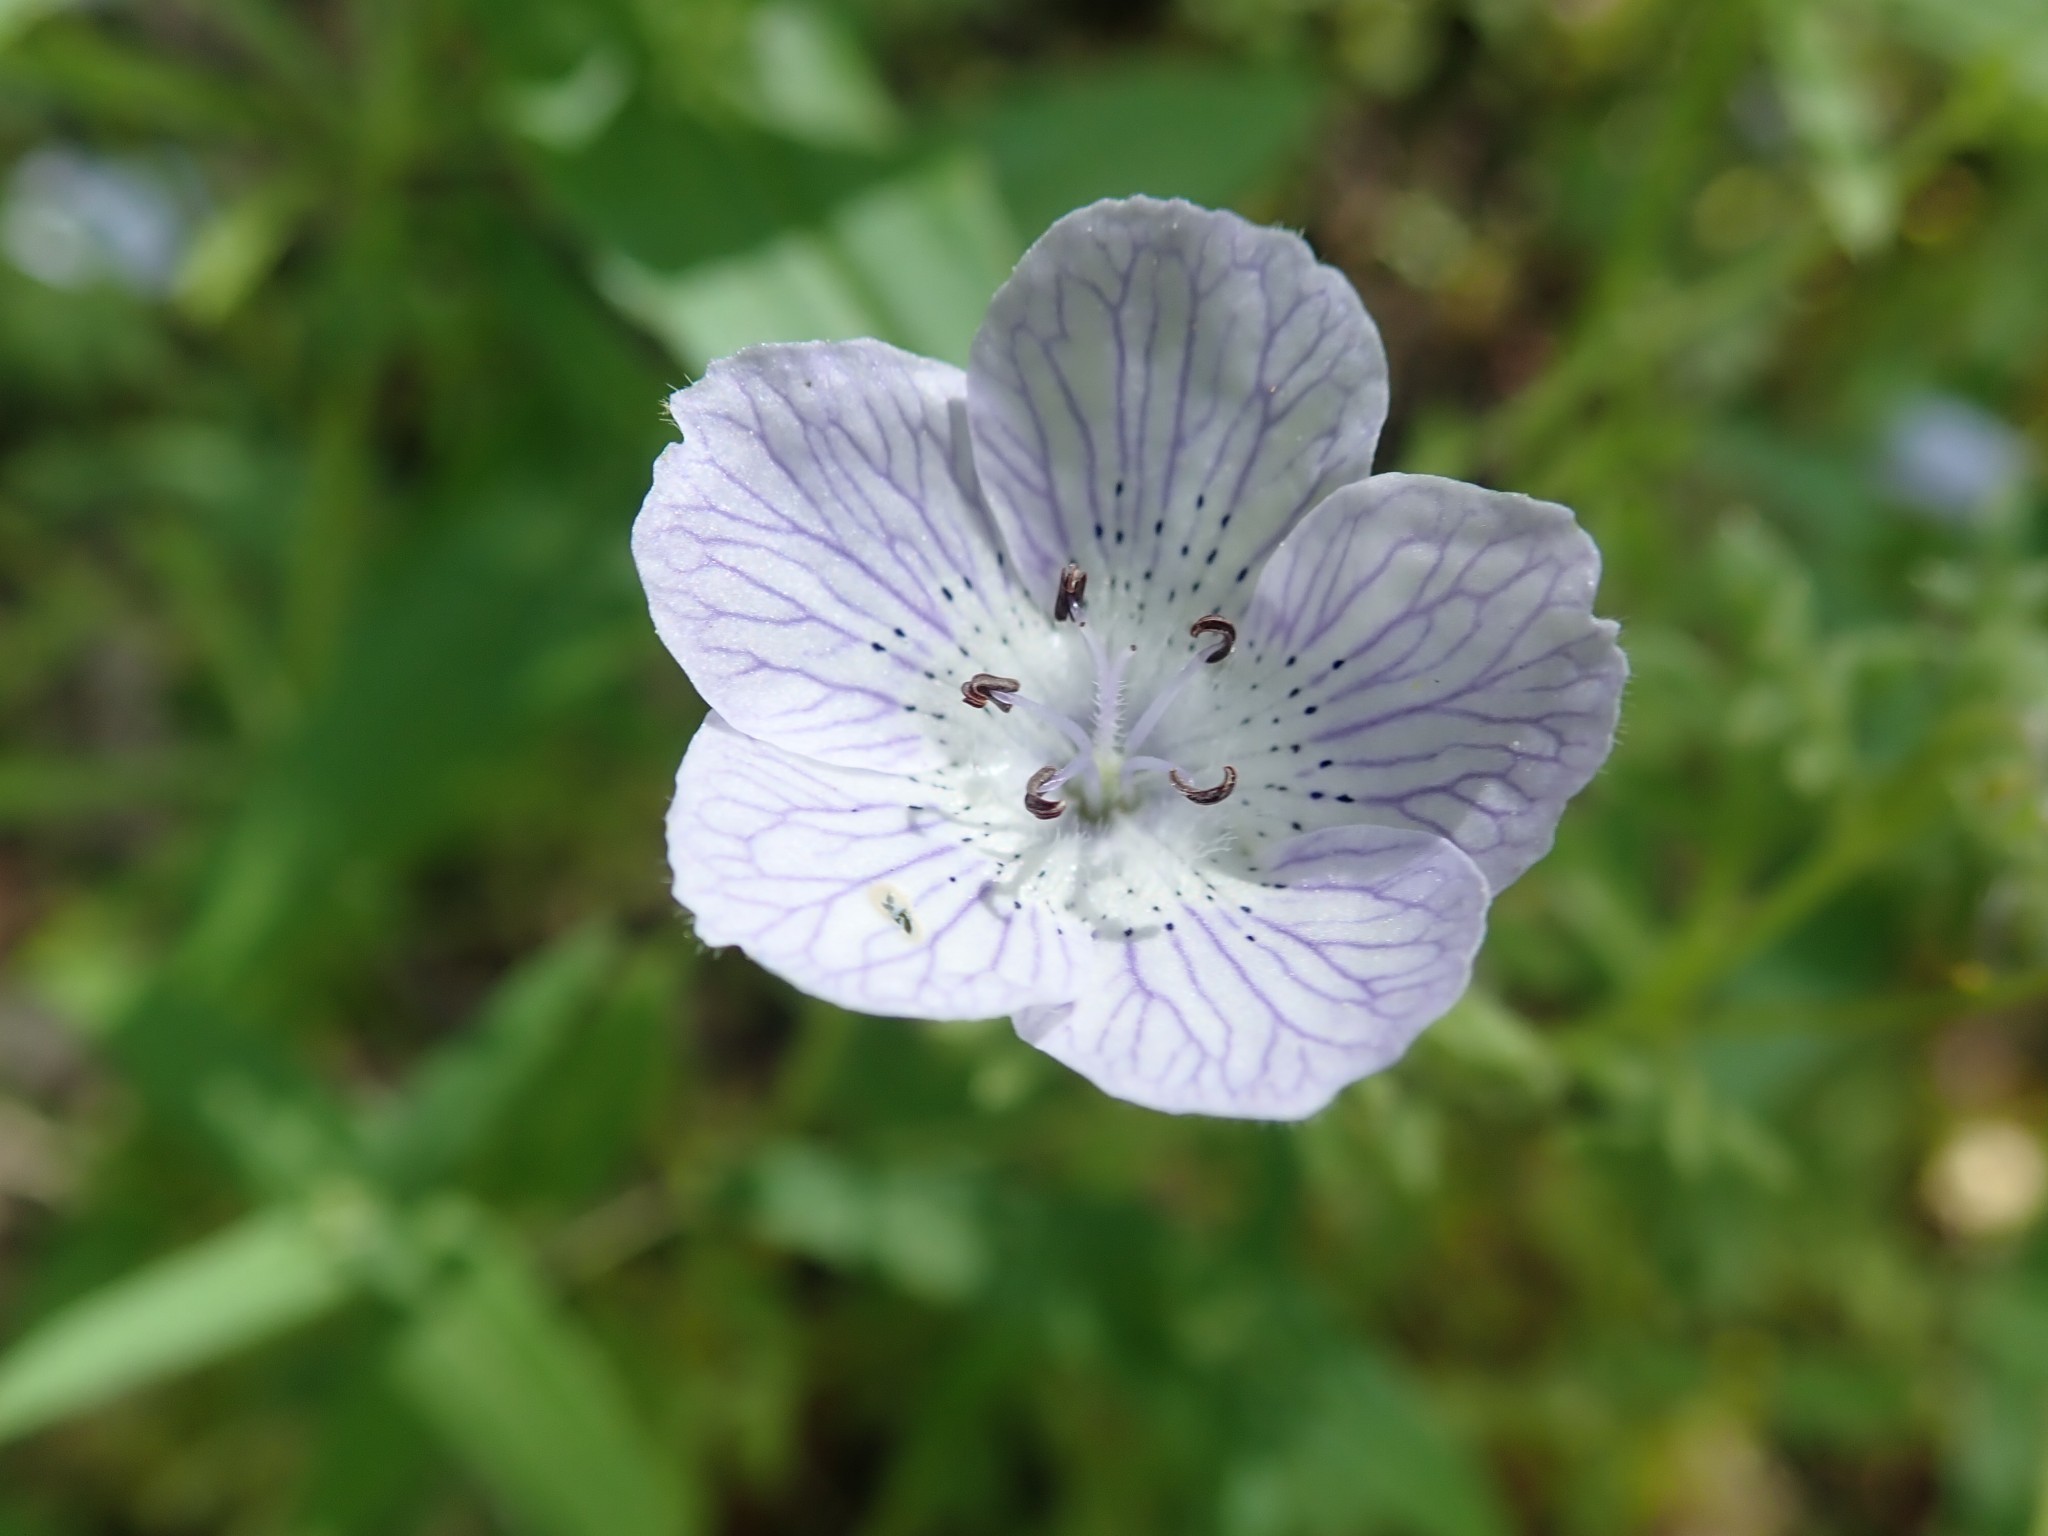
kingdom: Plantae
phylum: Tracheophyta
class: Magnoliopsida
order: Boraginales
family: Hydrophyllaceae
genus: Nemophila
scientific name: Nemophila menziesii
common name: Baby's-blue-eyes
